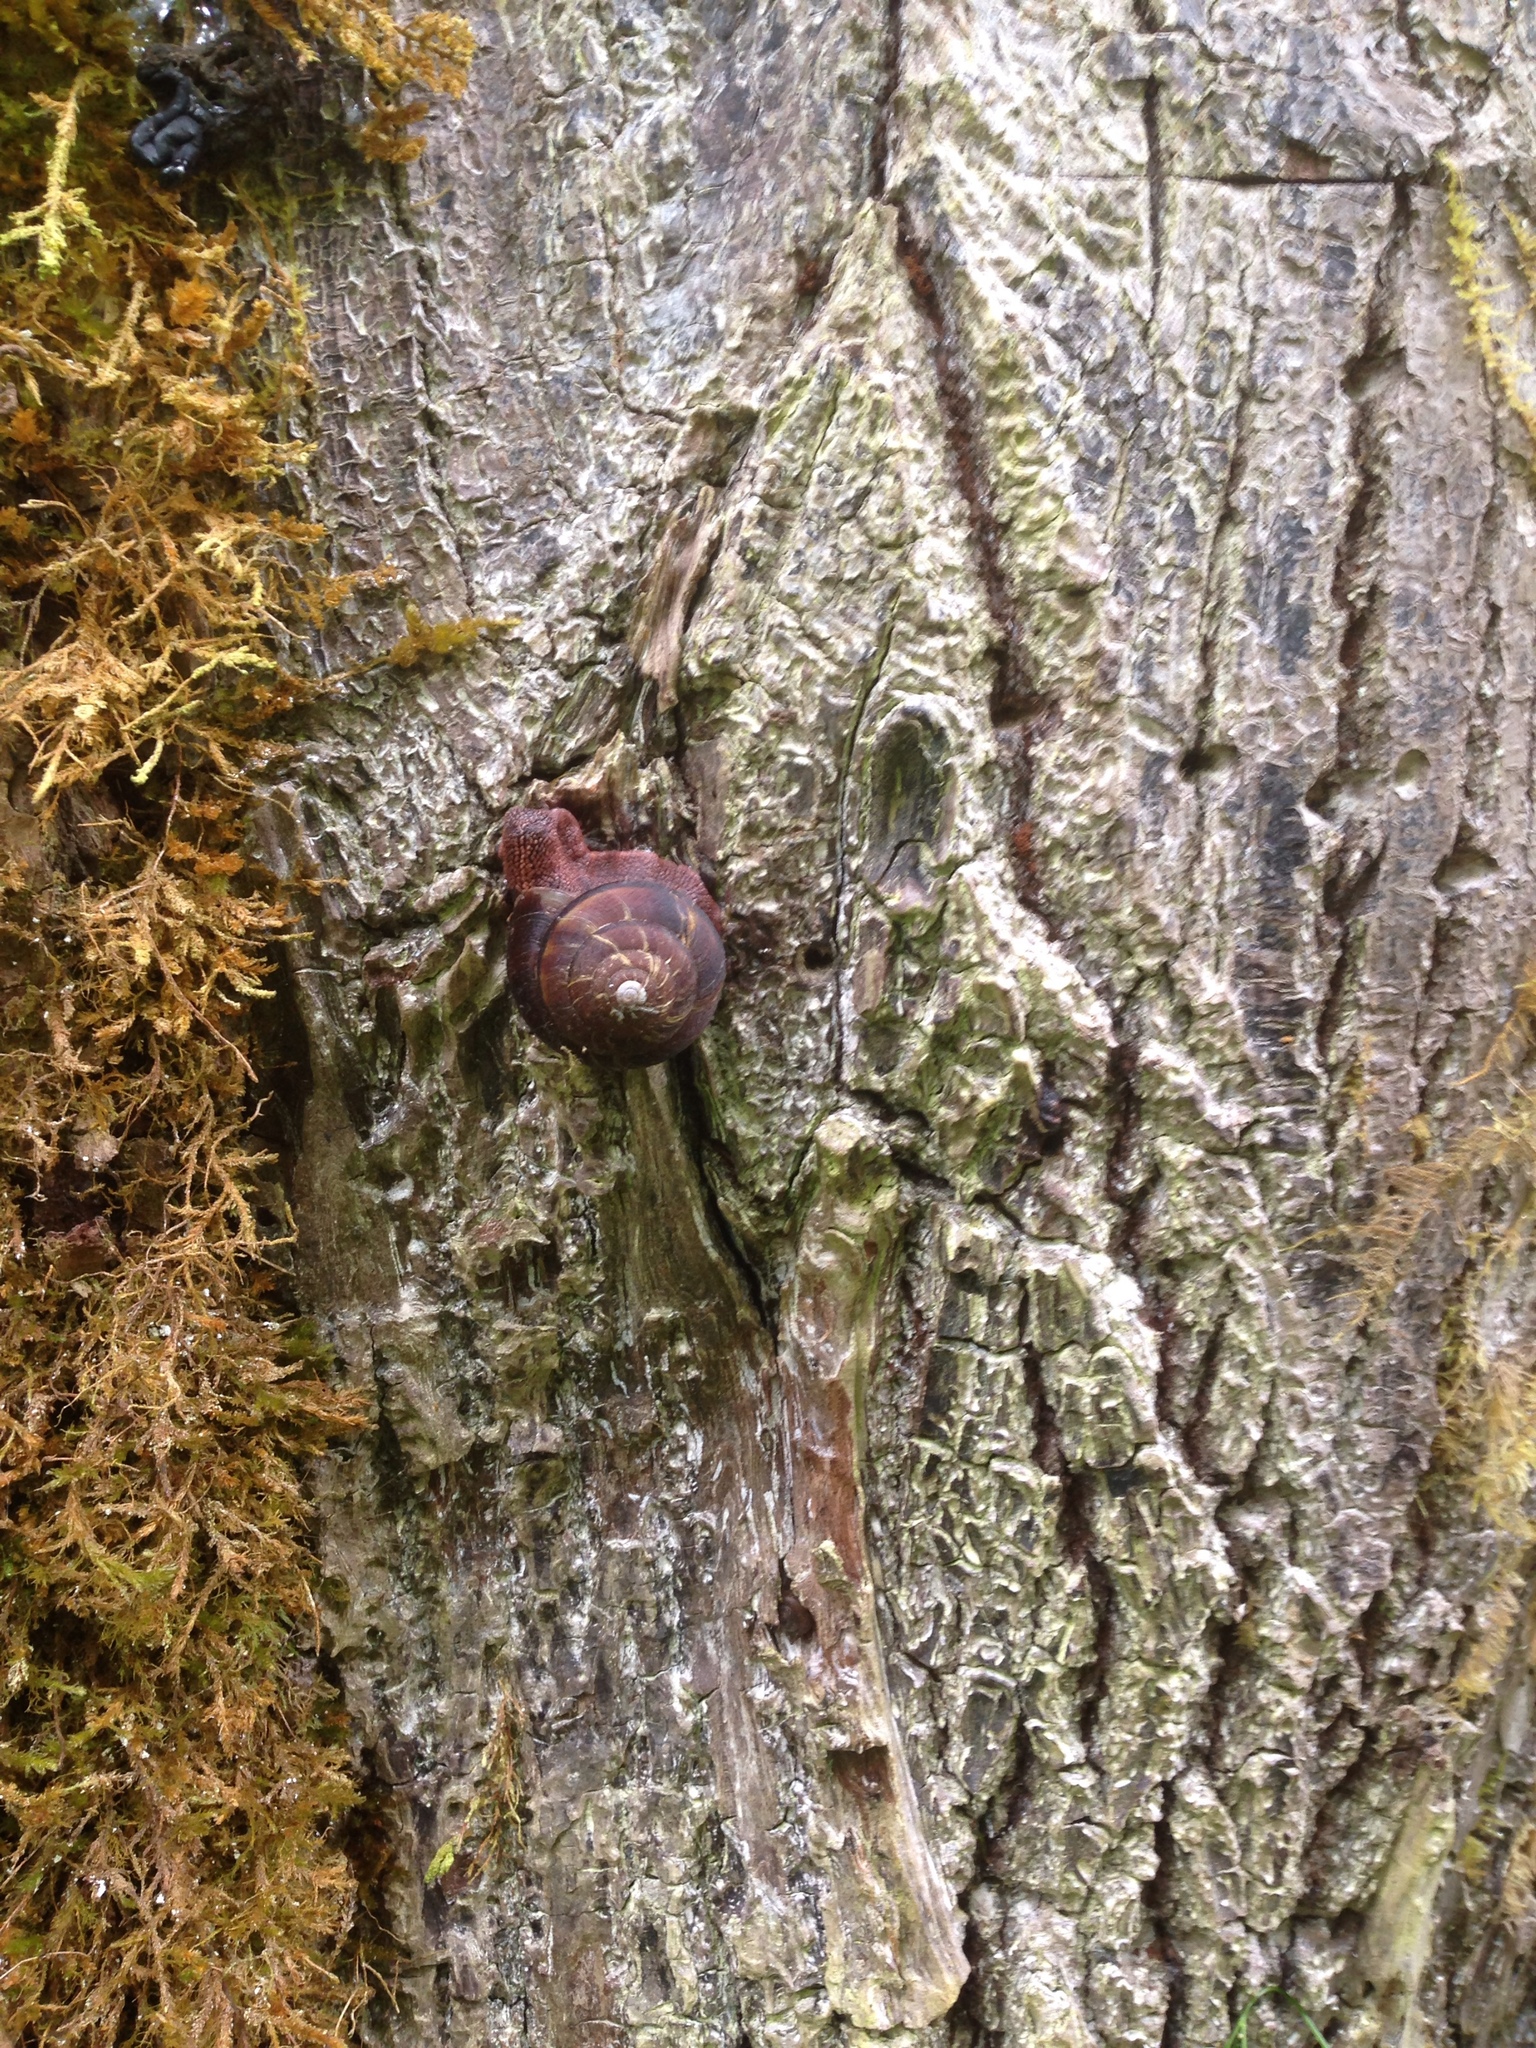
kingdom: Animalia
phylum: Mollusca
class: Gastropoda
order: Stylommatophora
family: Xanthonychidae
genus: Monadenia
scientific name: Monadenia fidelis
